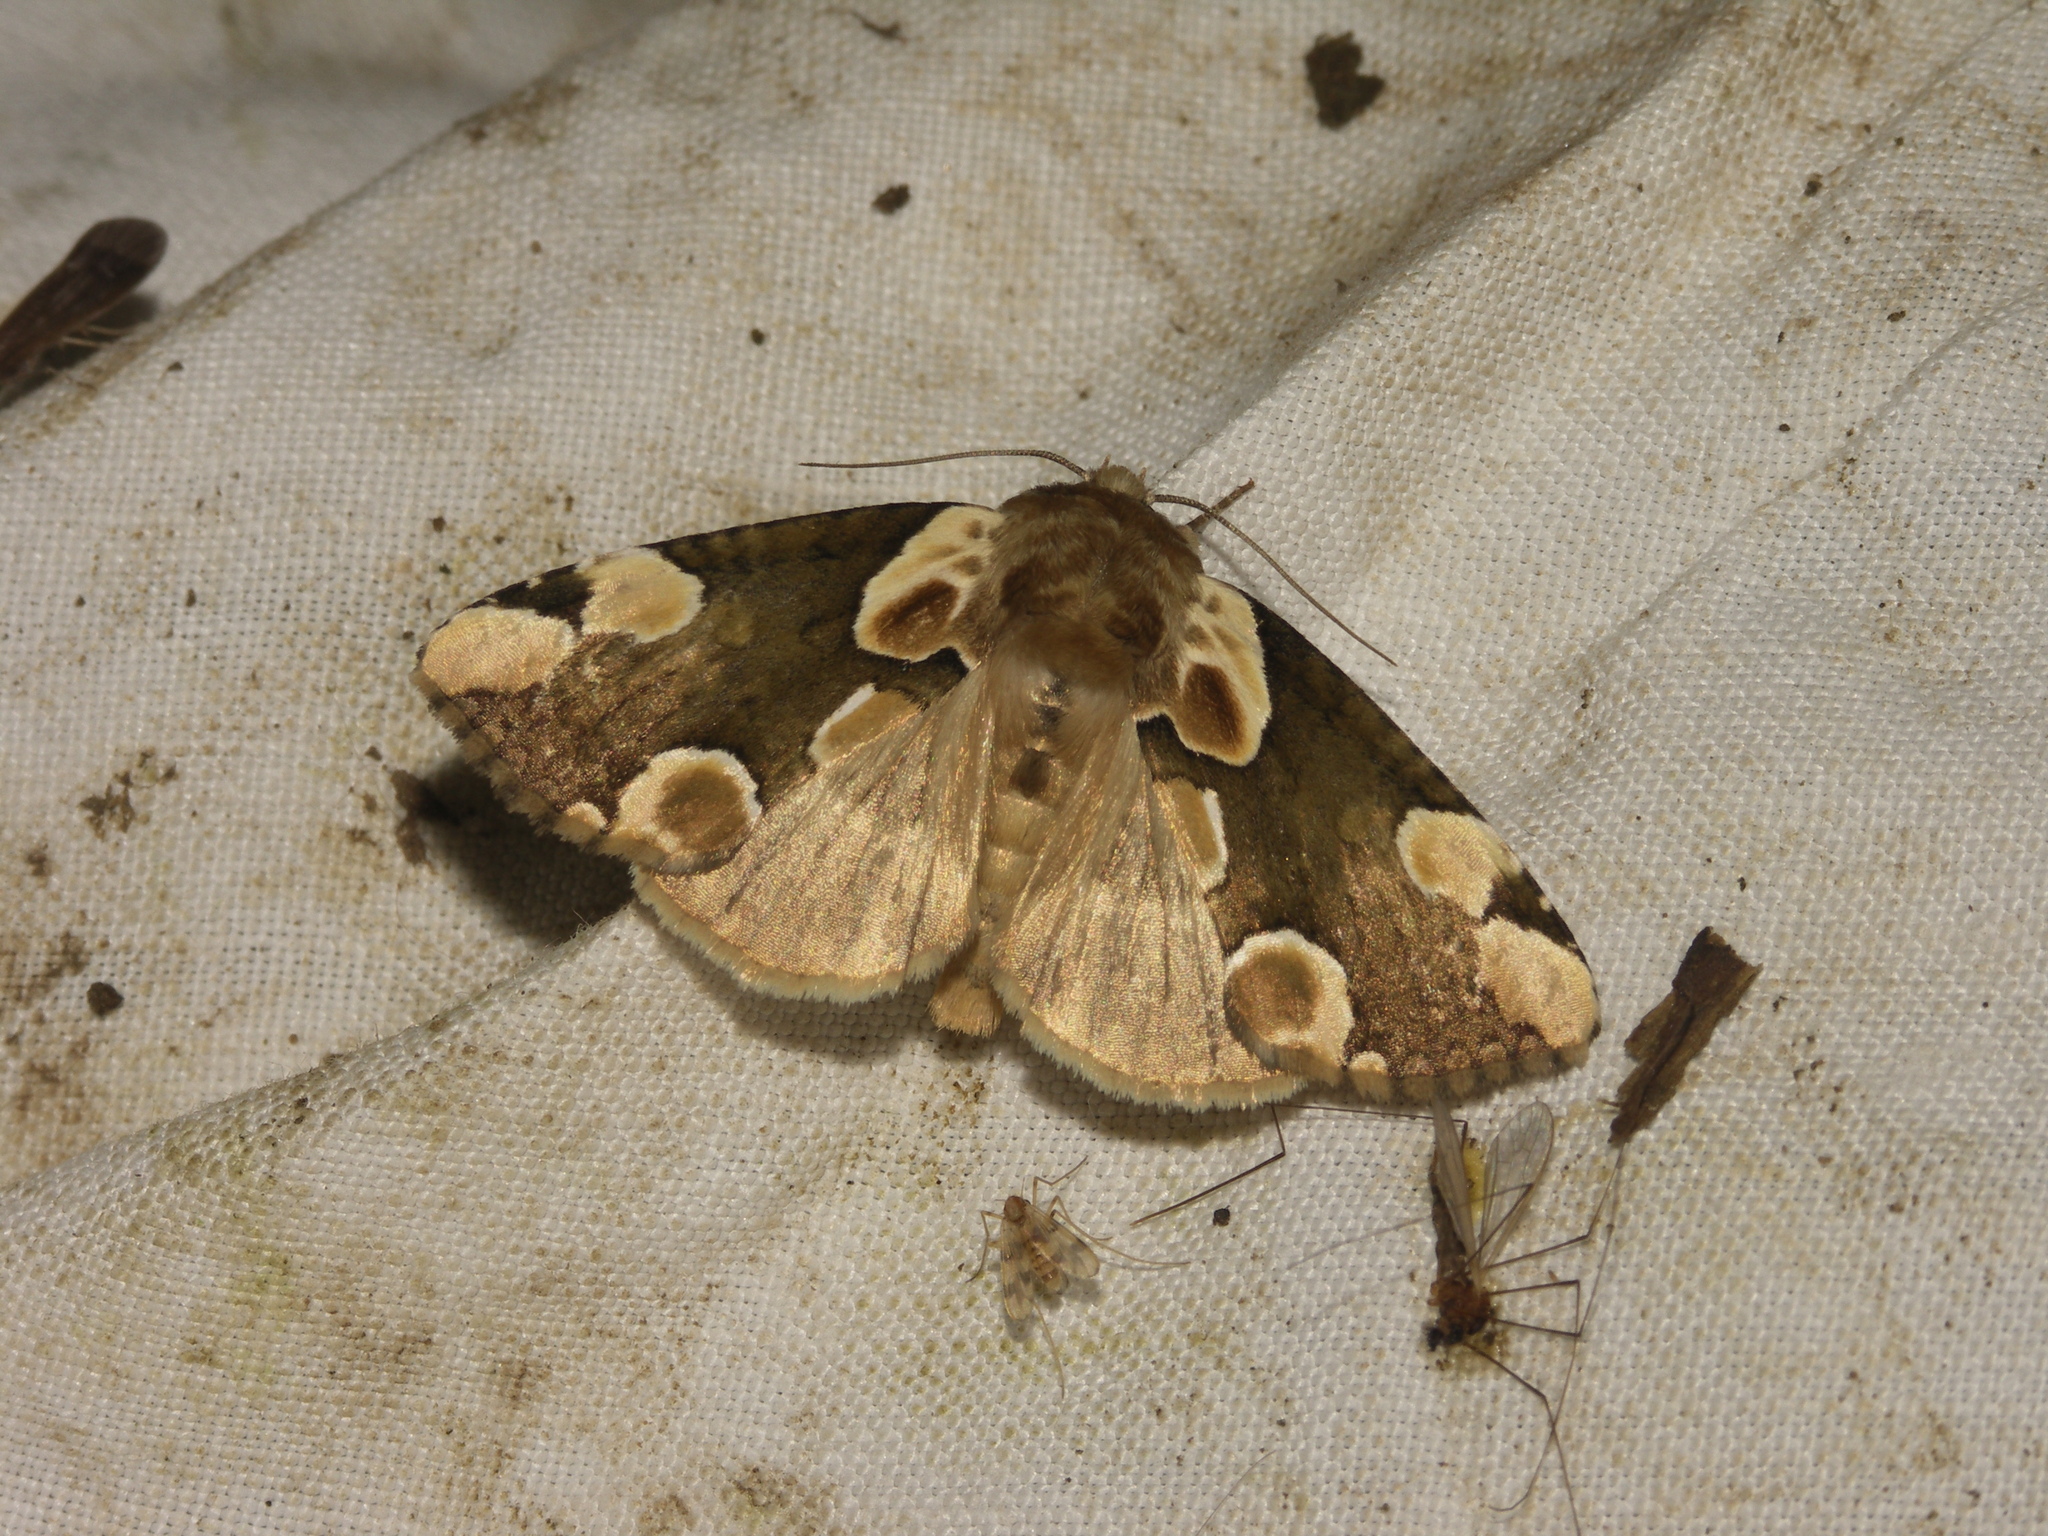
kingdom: Animalia
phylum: Arthropoda
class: Insecta
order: Lepidoptera
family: Drepanidae
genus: Thyatira
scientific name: Thyatira batis
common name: Peach blossom
